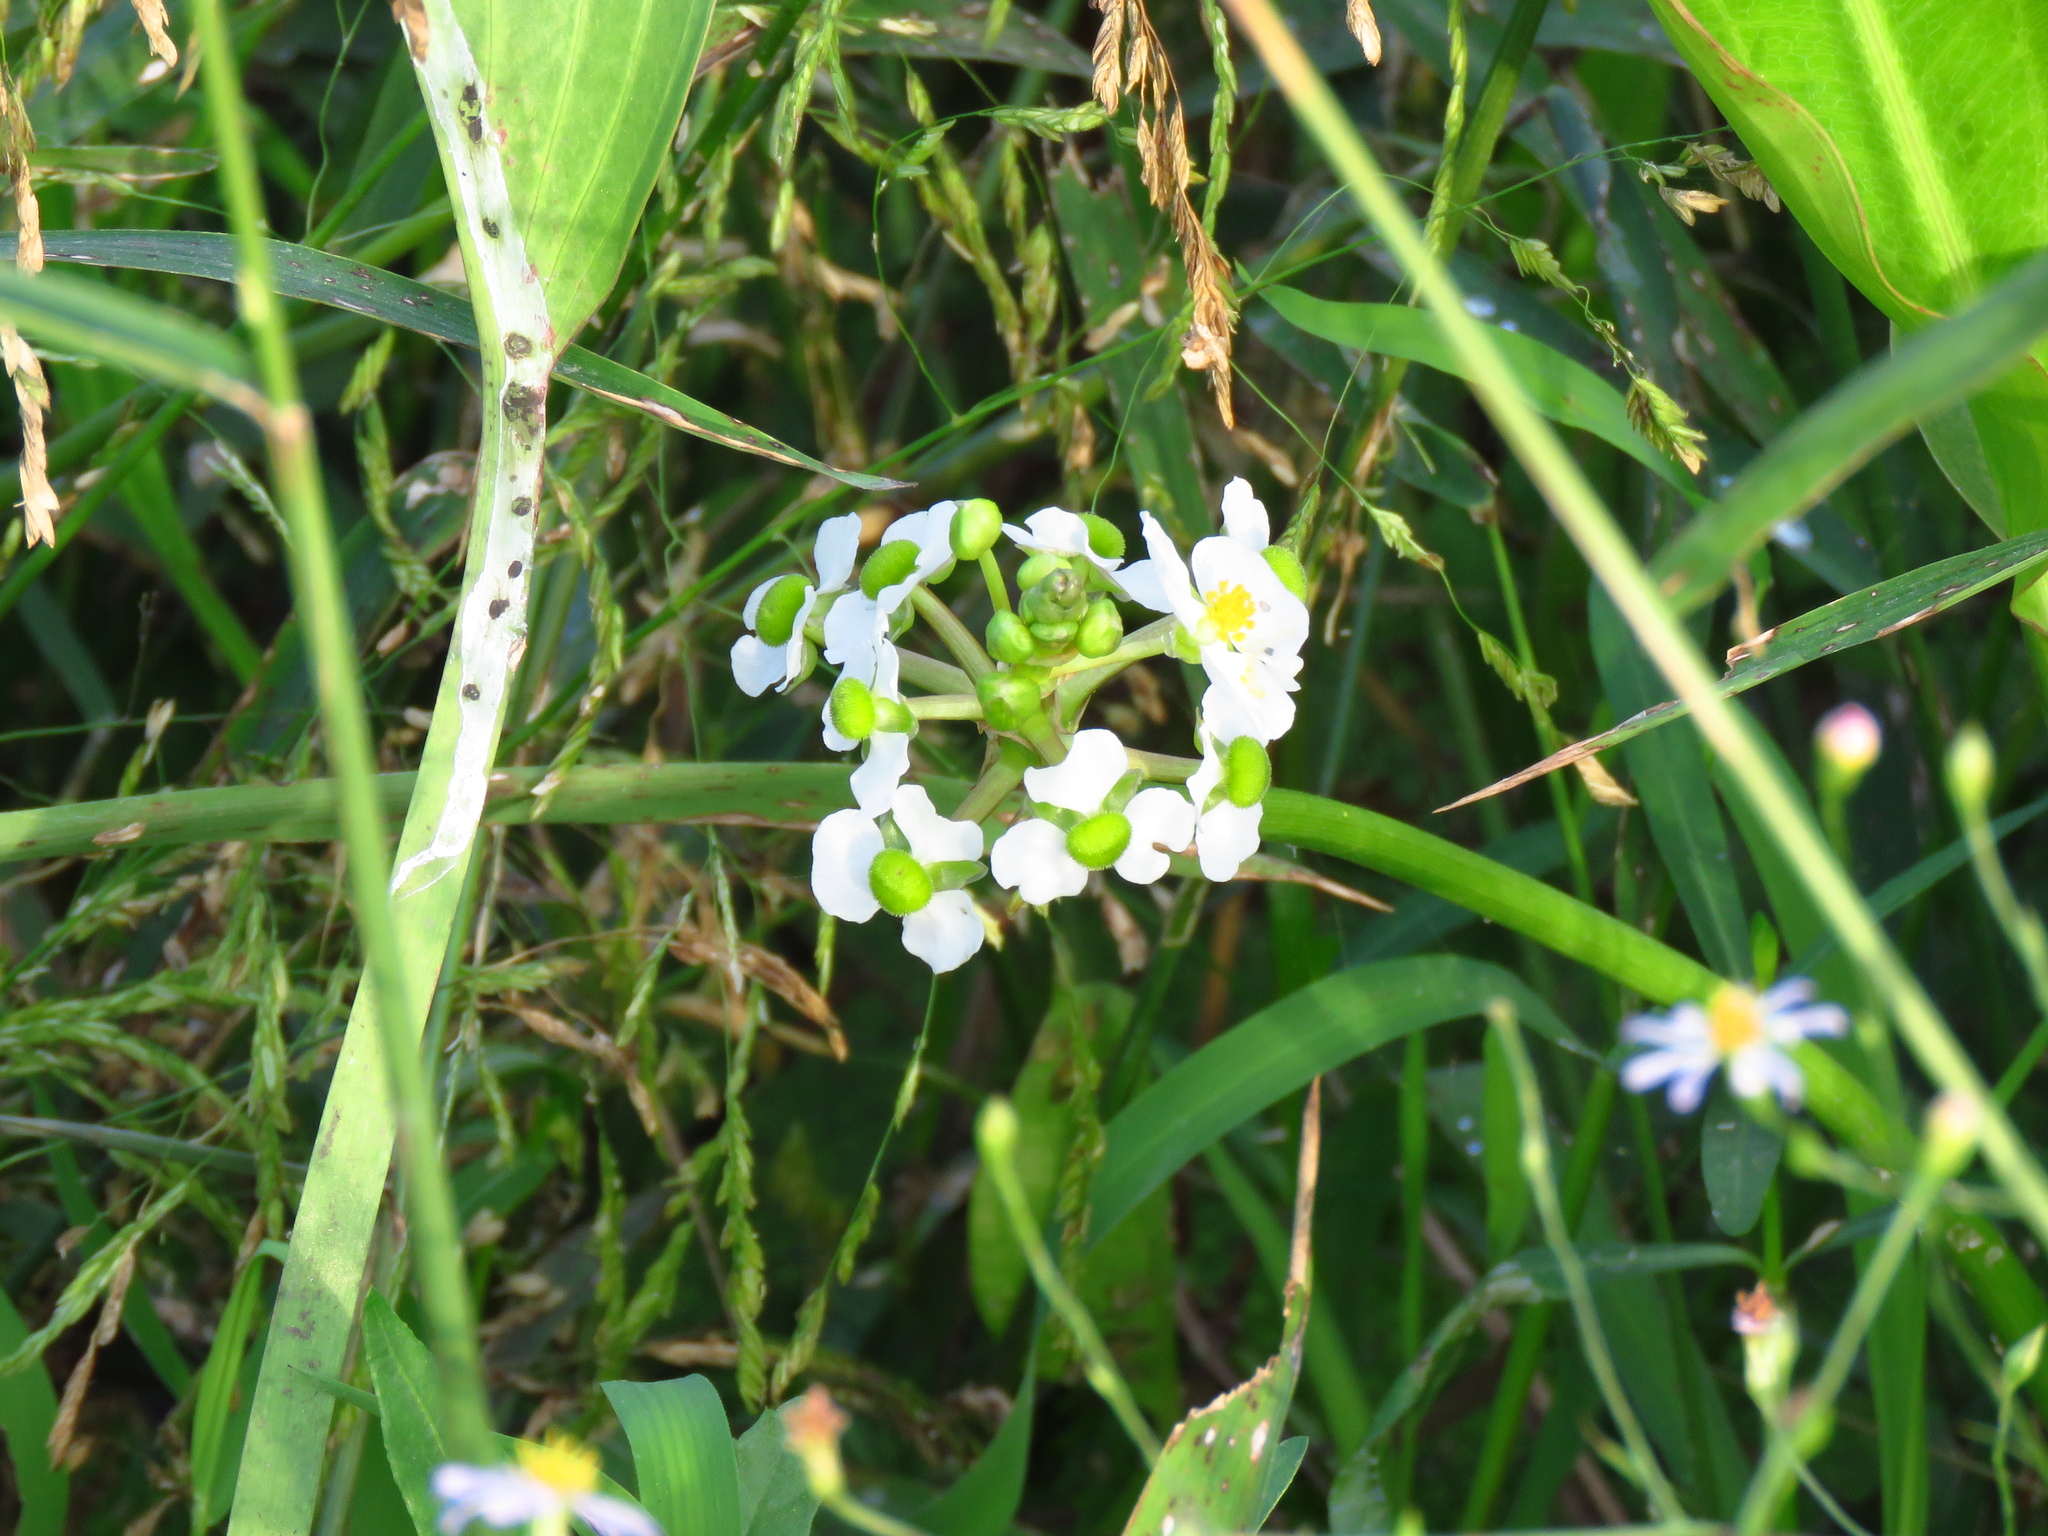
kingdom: Plantae
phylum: Tracheophyta
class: Liliopsida
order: Alismatales
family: Alismataceae
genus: Sagittaria
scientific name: Sagittaria platyphylla
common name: Broad-leaf arrowhead
